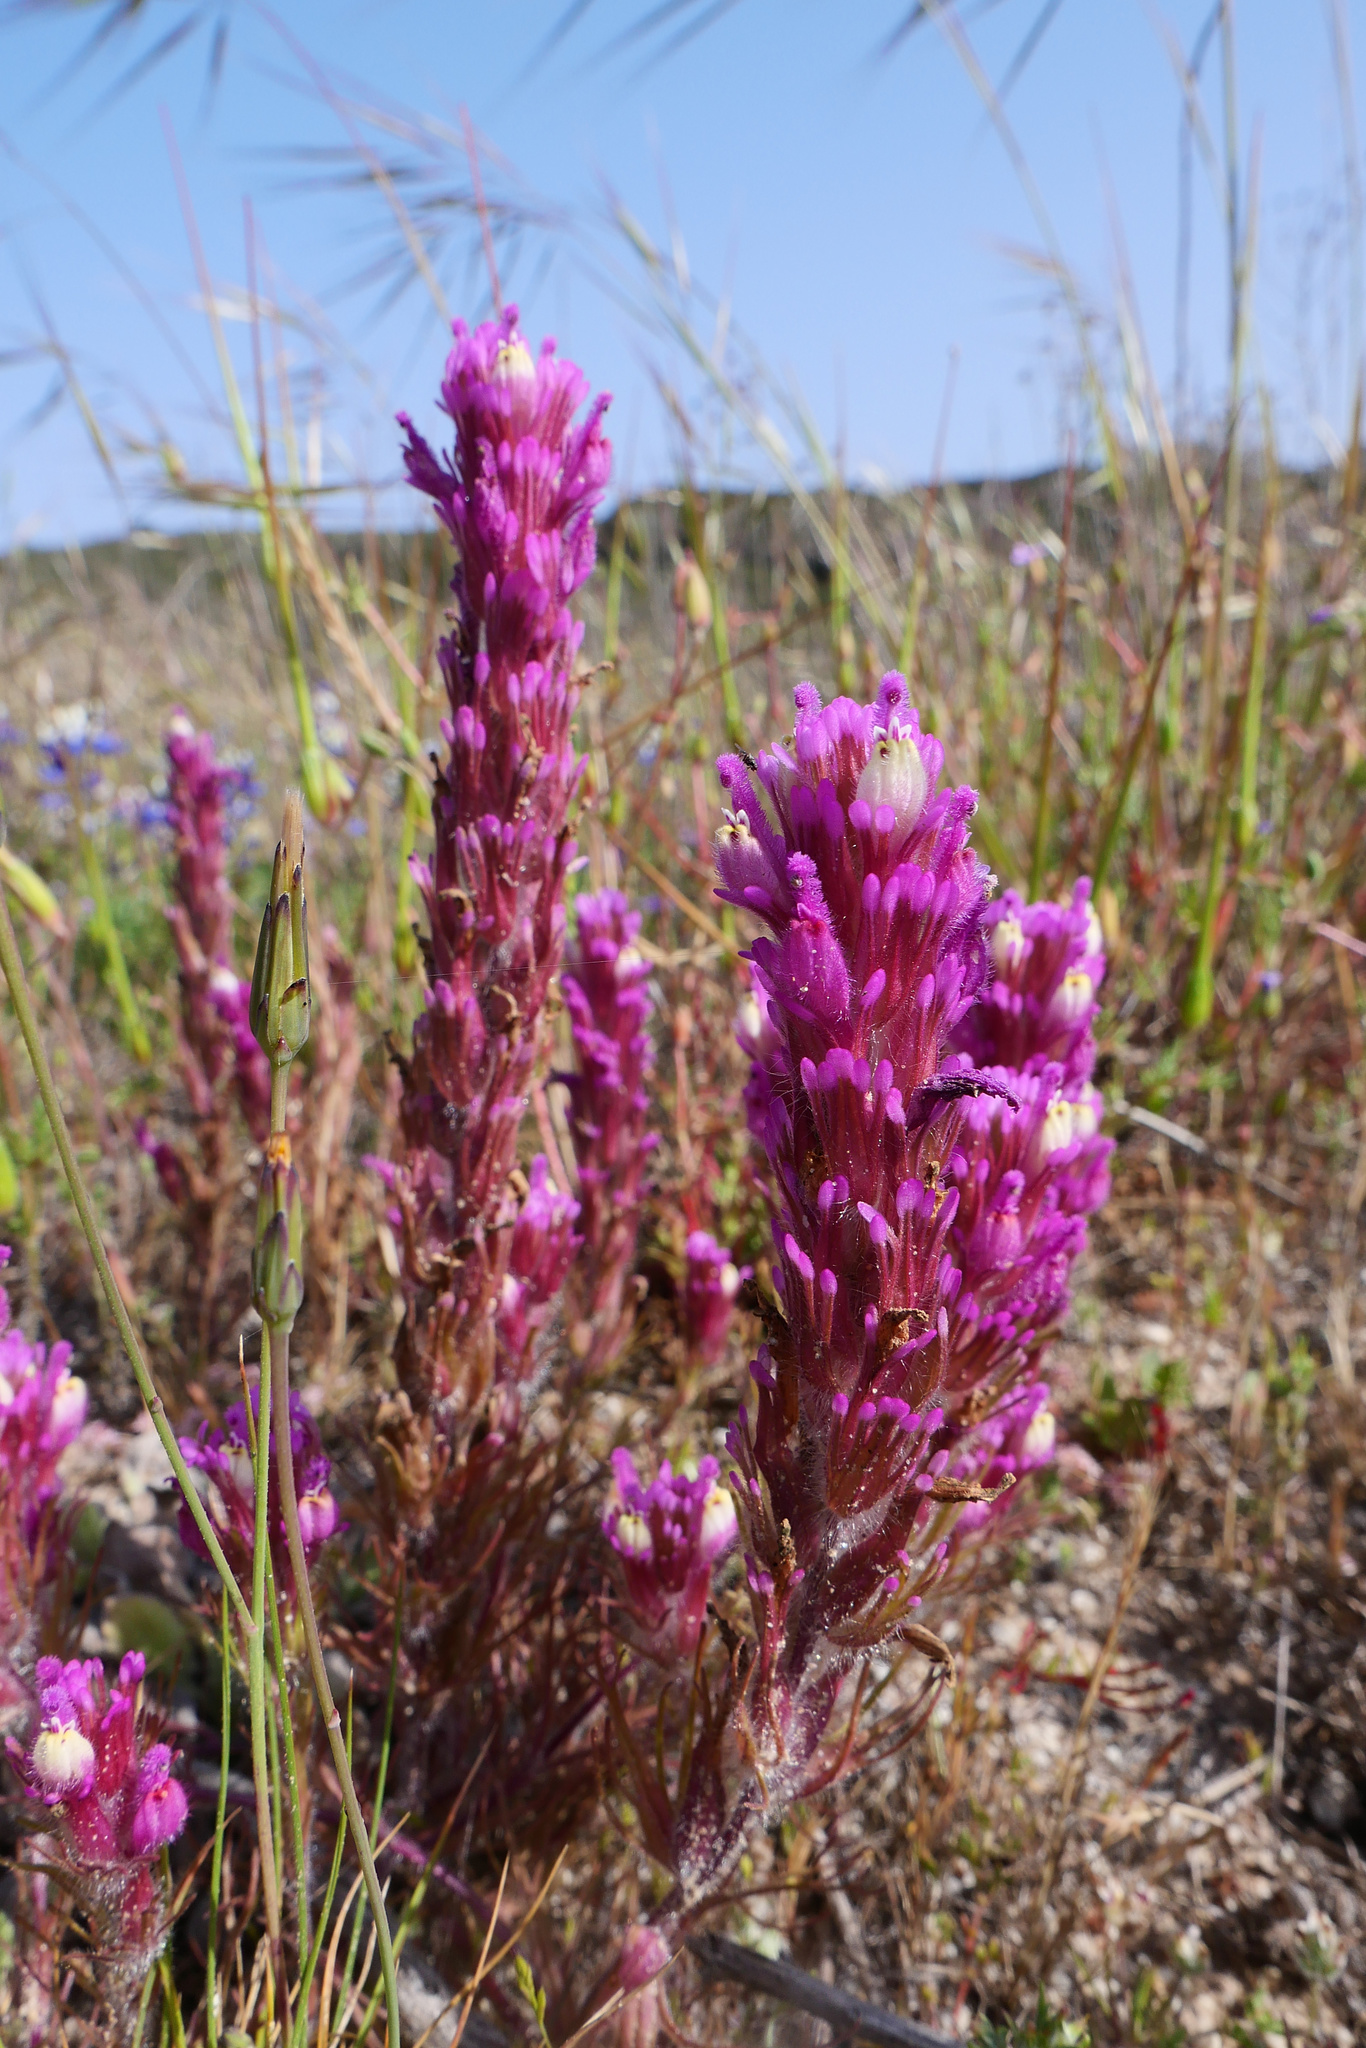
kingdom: Plantae
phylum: Tracheophyta
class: Magnoliopsida
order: Lamiales
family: Orobanchaceae
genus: Castilleja
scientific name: Castilleja exserta
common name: Purple owl-clover
